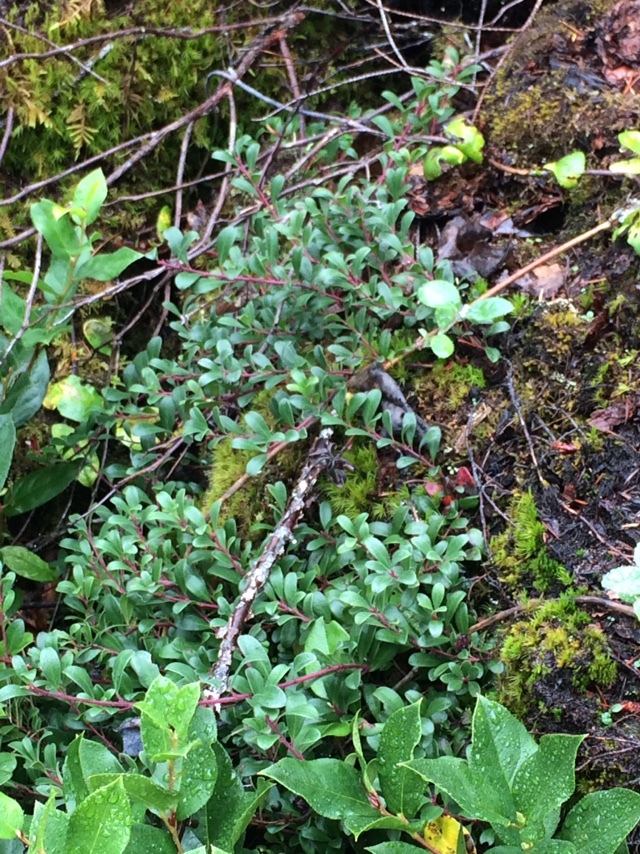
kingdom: Plantae
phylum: Tracheophyta
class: Magnoliopsida
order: Ericales
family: Ericaceae
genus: Arctostaphylos
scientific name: Arctostaphylos uva-ursi
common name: Bearberry
